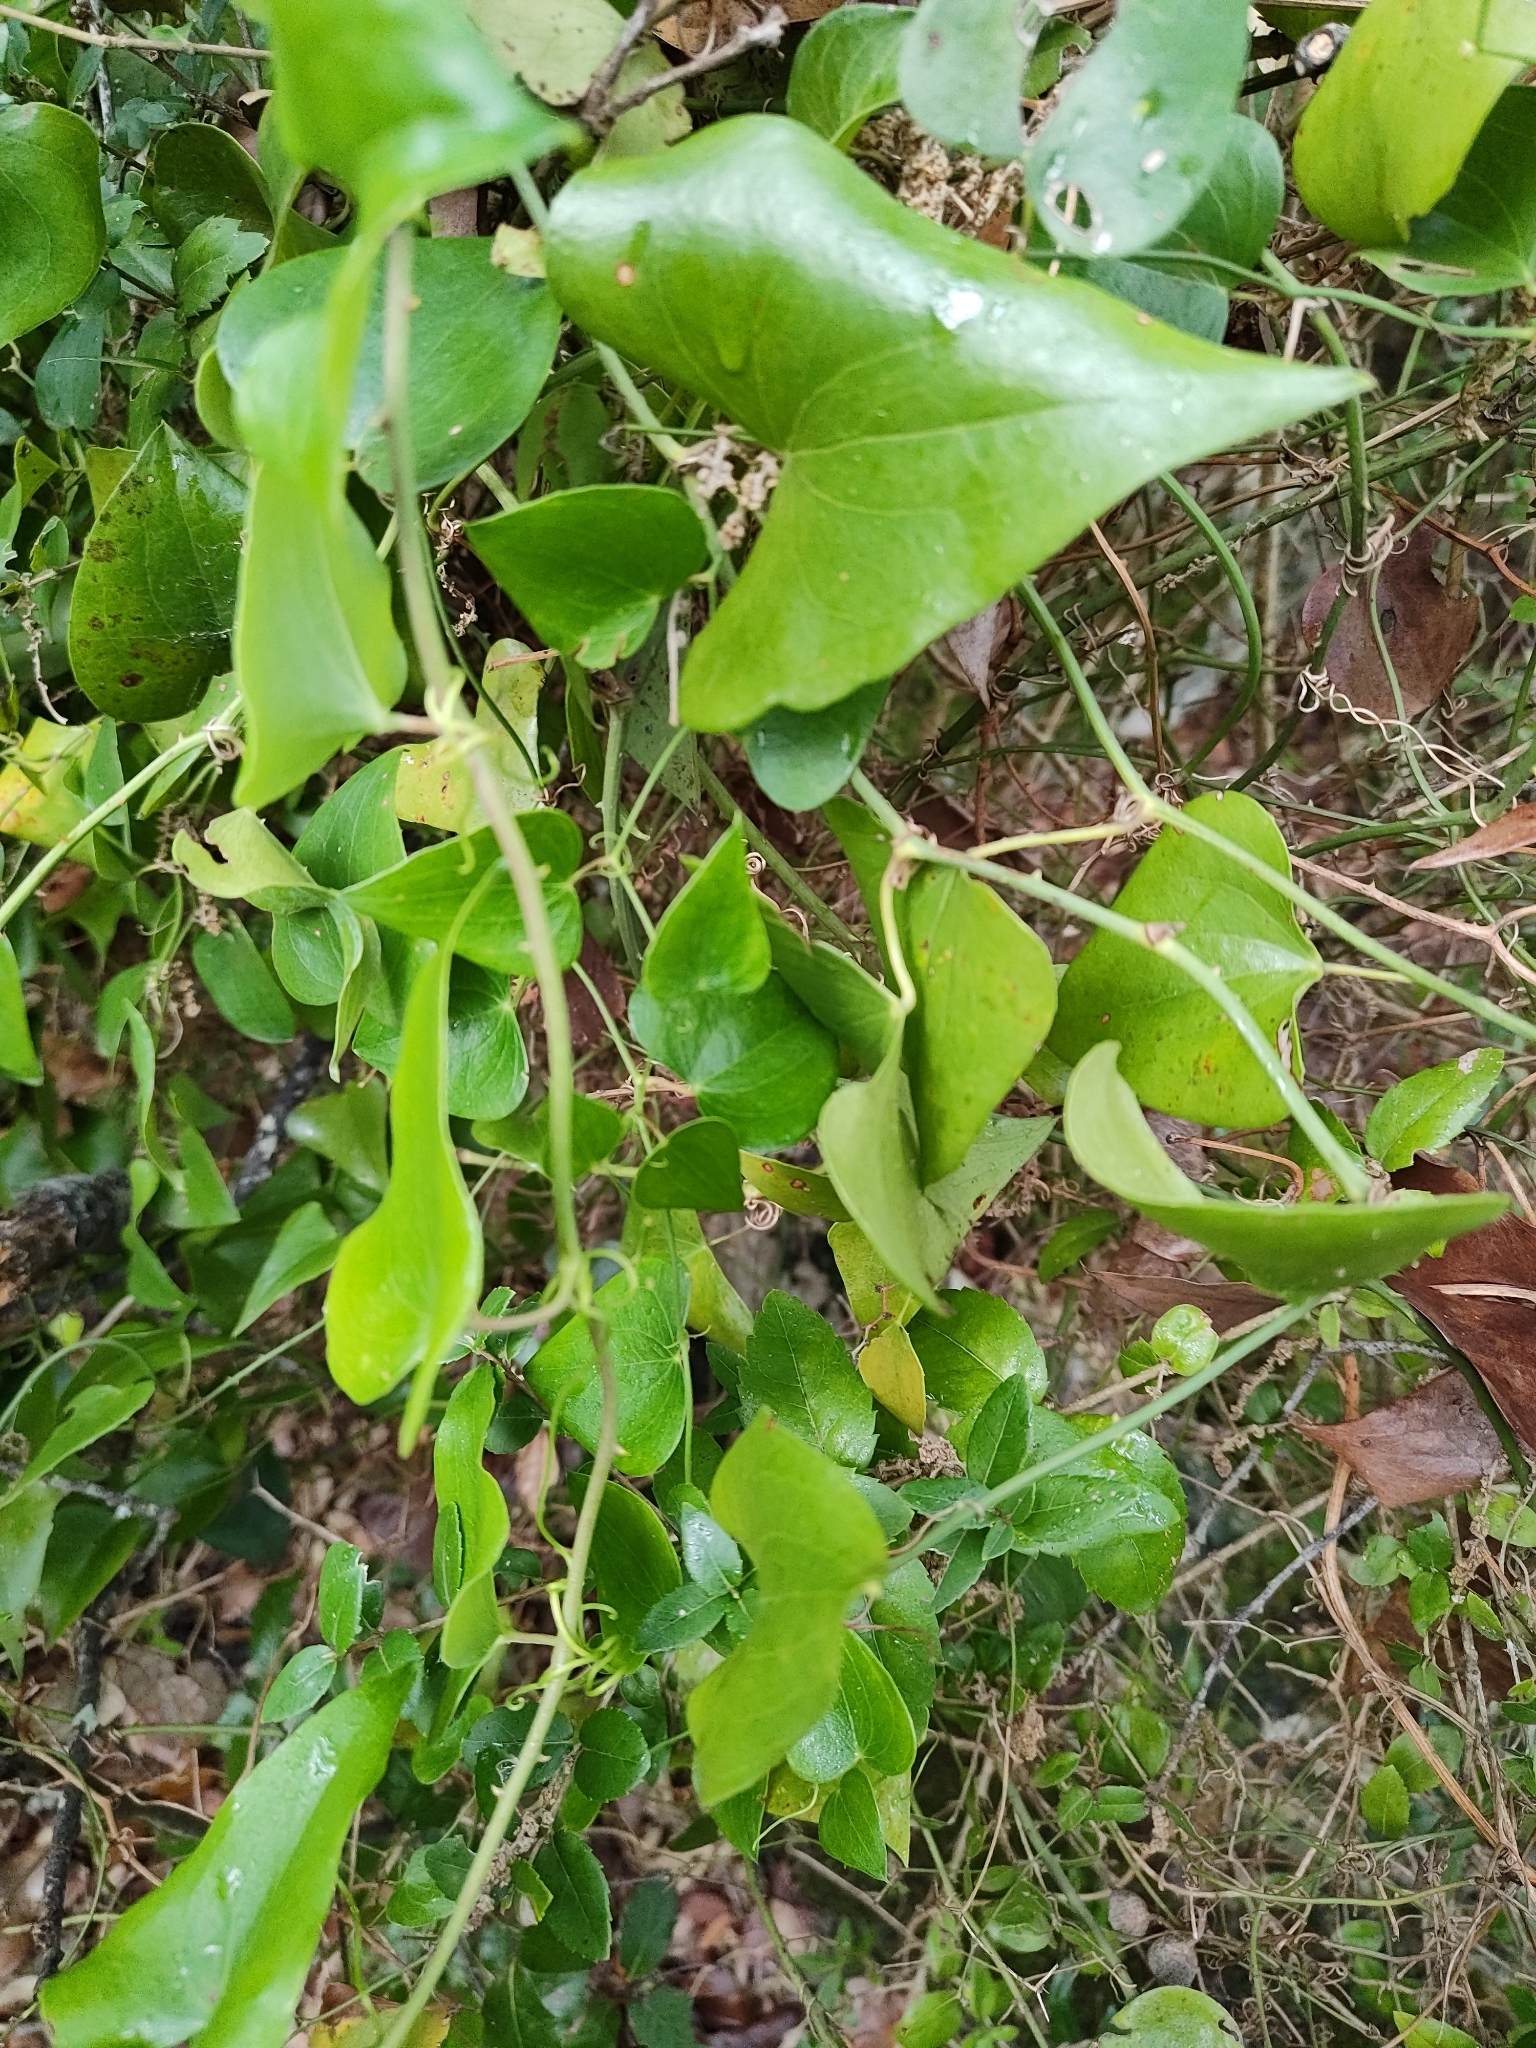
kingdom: Plantae
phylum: Tracheophyta
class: Liliopsida
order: Liliales
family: Smilacaceae
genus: Smilax
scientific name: Smilax aspera
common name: Common smilax
